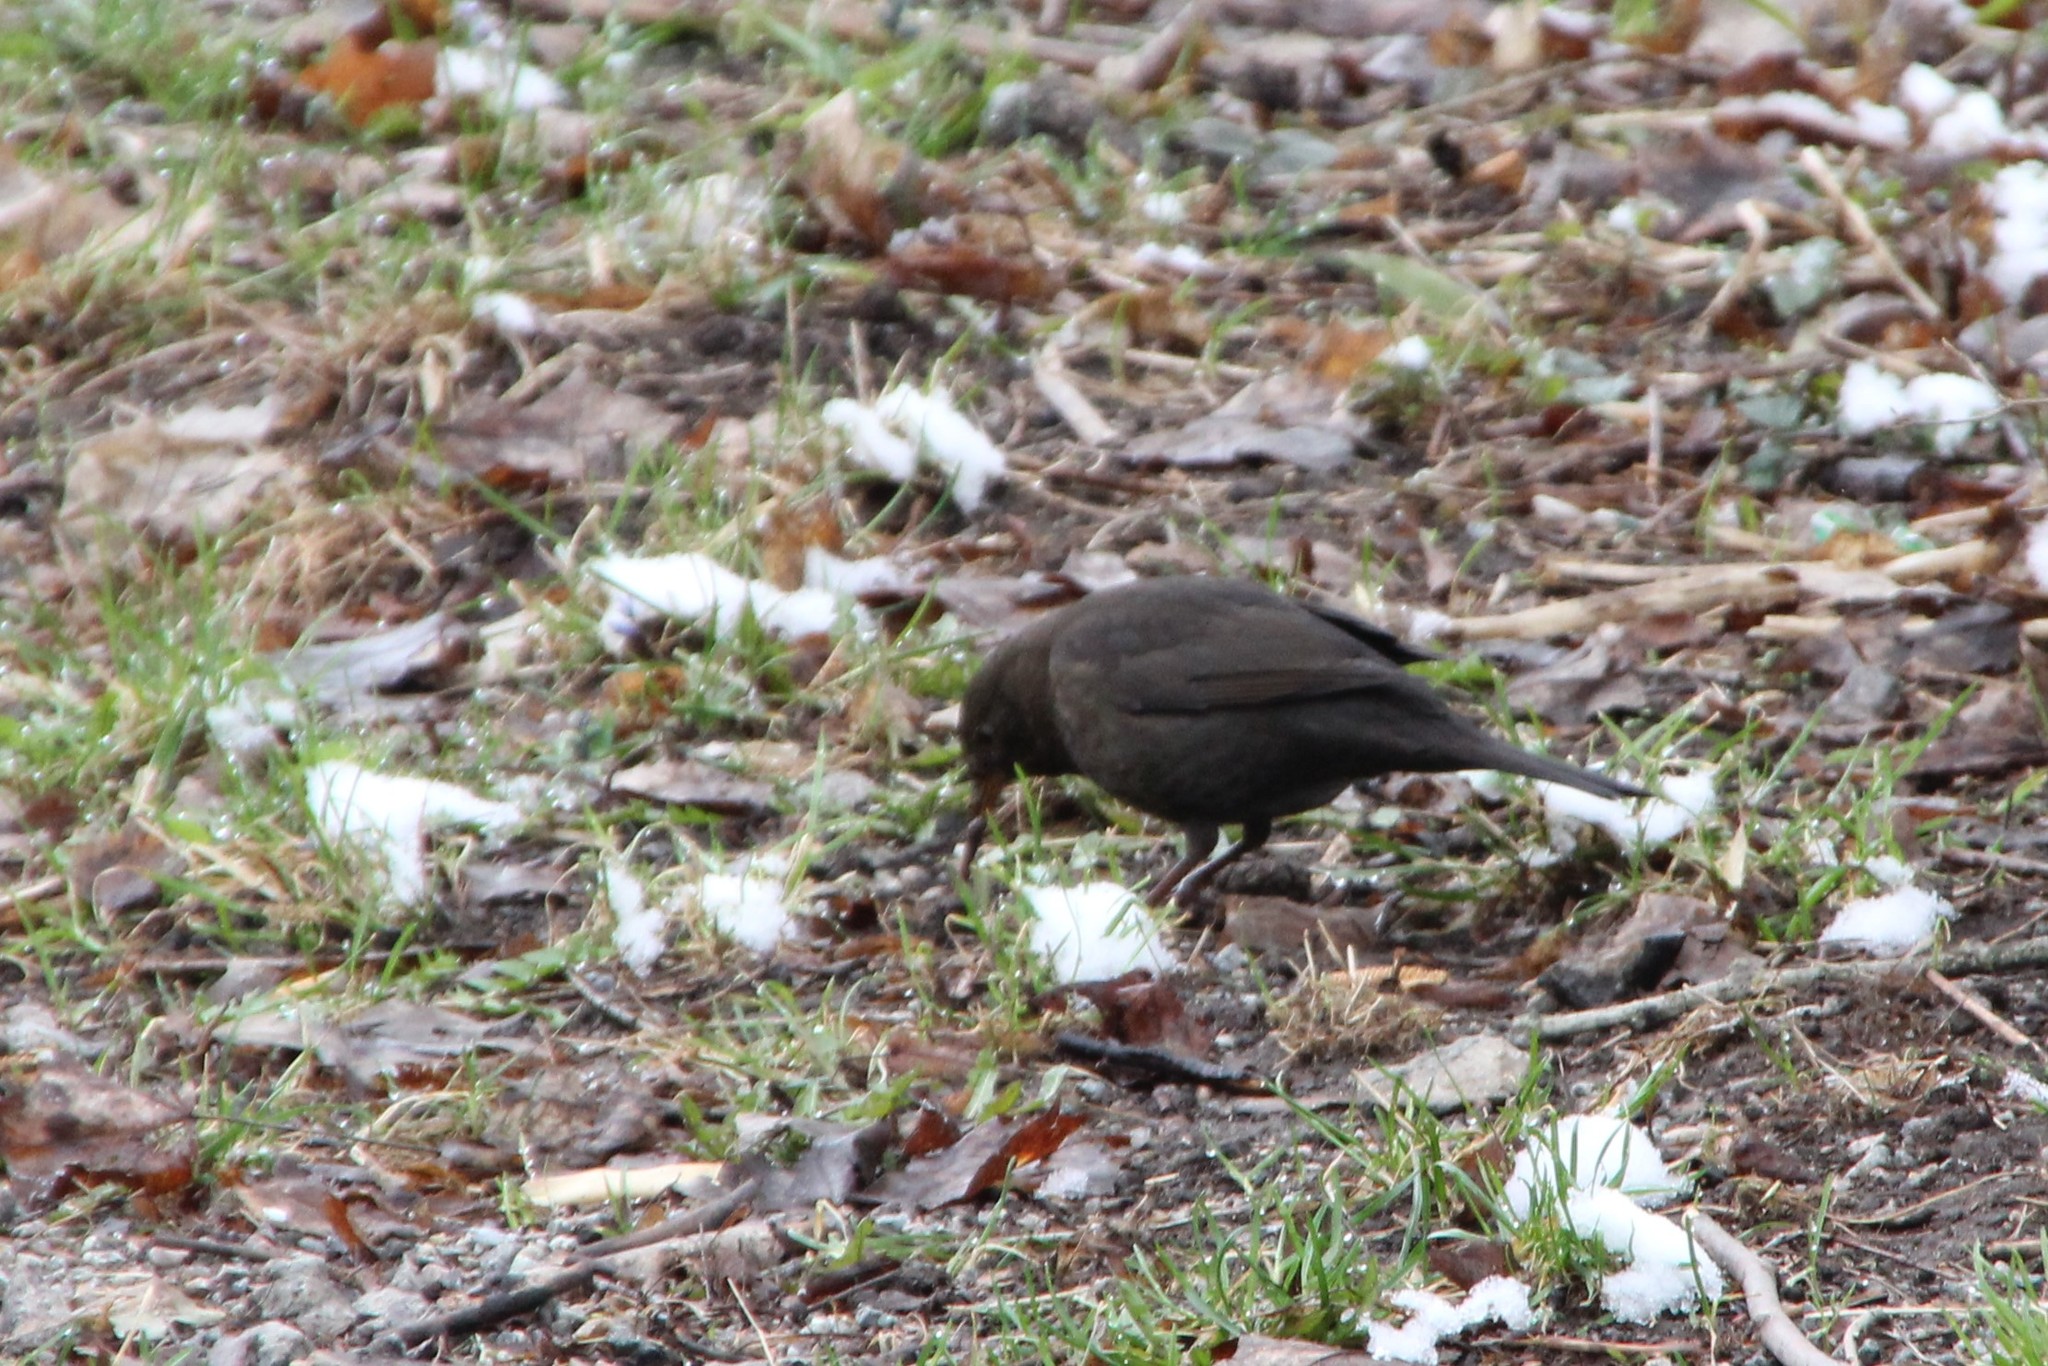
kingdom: Animalia
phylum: Chordata
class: Aves
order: Passeriformes
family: Turdidae
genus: Turdus
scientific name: Turdus merula
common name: Common blackbird
